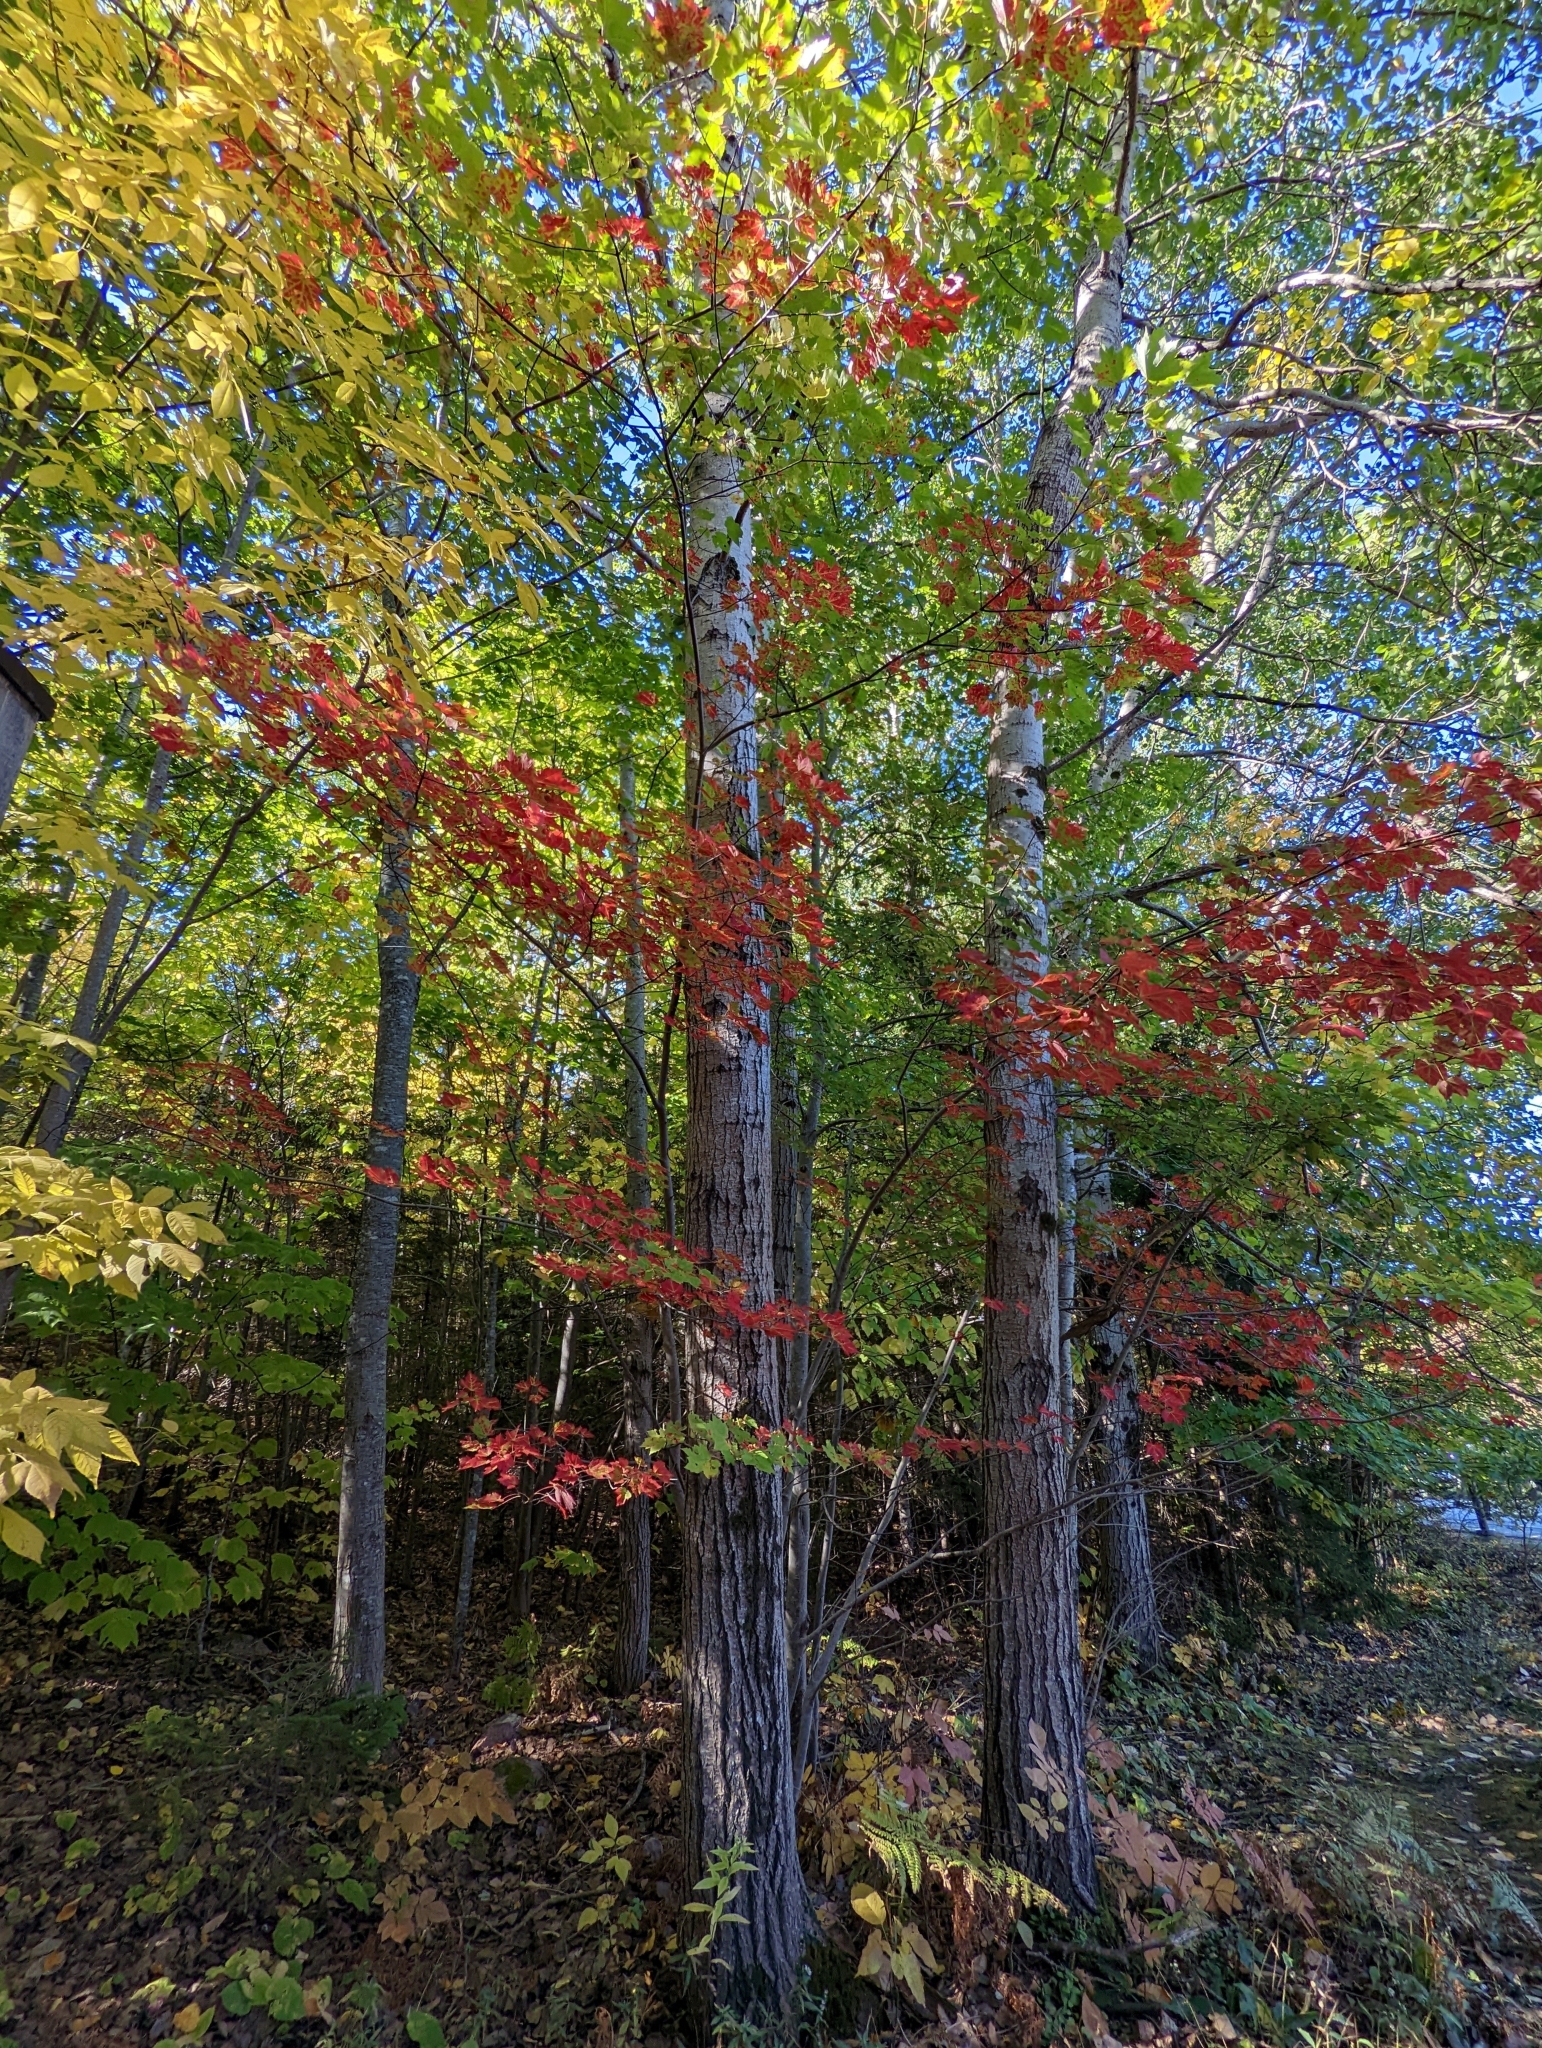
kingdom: Plantae
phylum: Tracheophyta
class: Magnoliopsida
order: Sapindales
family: Sapindaceae
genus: Acer
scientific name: Acer rubrum
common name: Red maple
